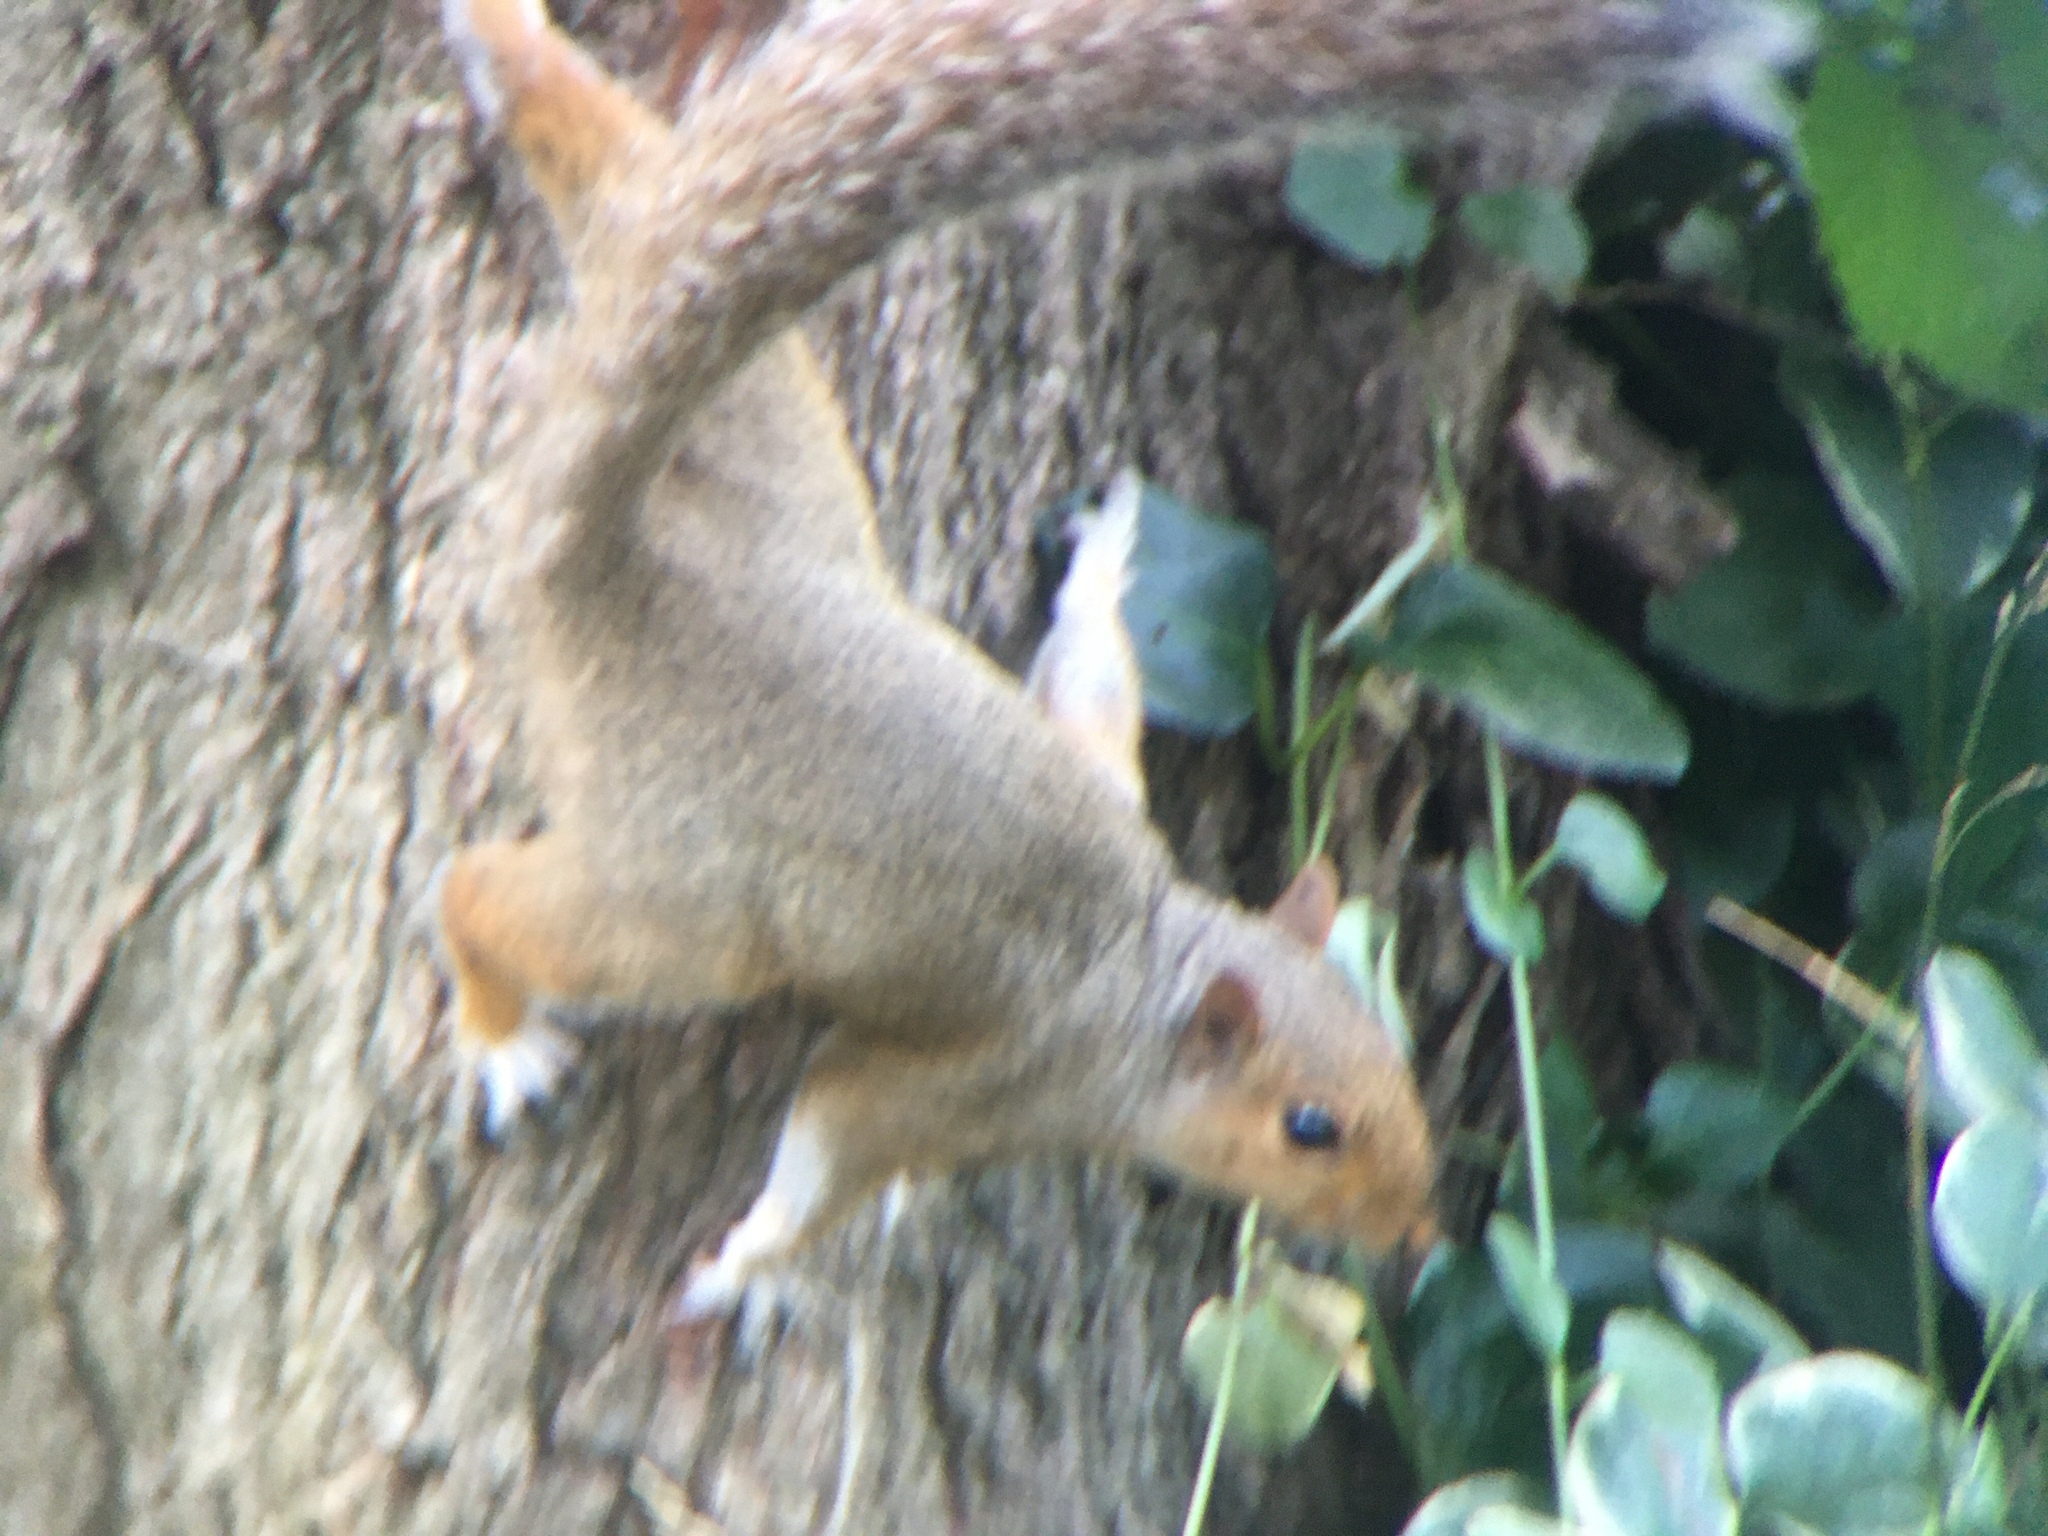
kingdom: Animalia
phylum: Chordata
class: Mammalia
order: Rodentia
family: Sciuridae
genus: Sciurus
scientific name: Sciurus carolinensis
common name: Eastern gray squirrel
